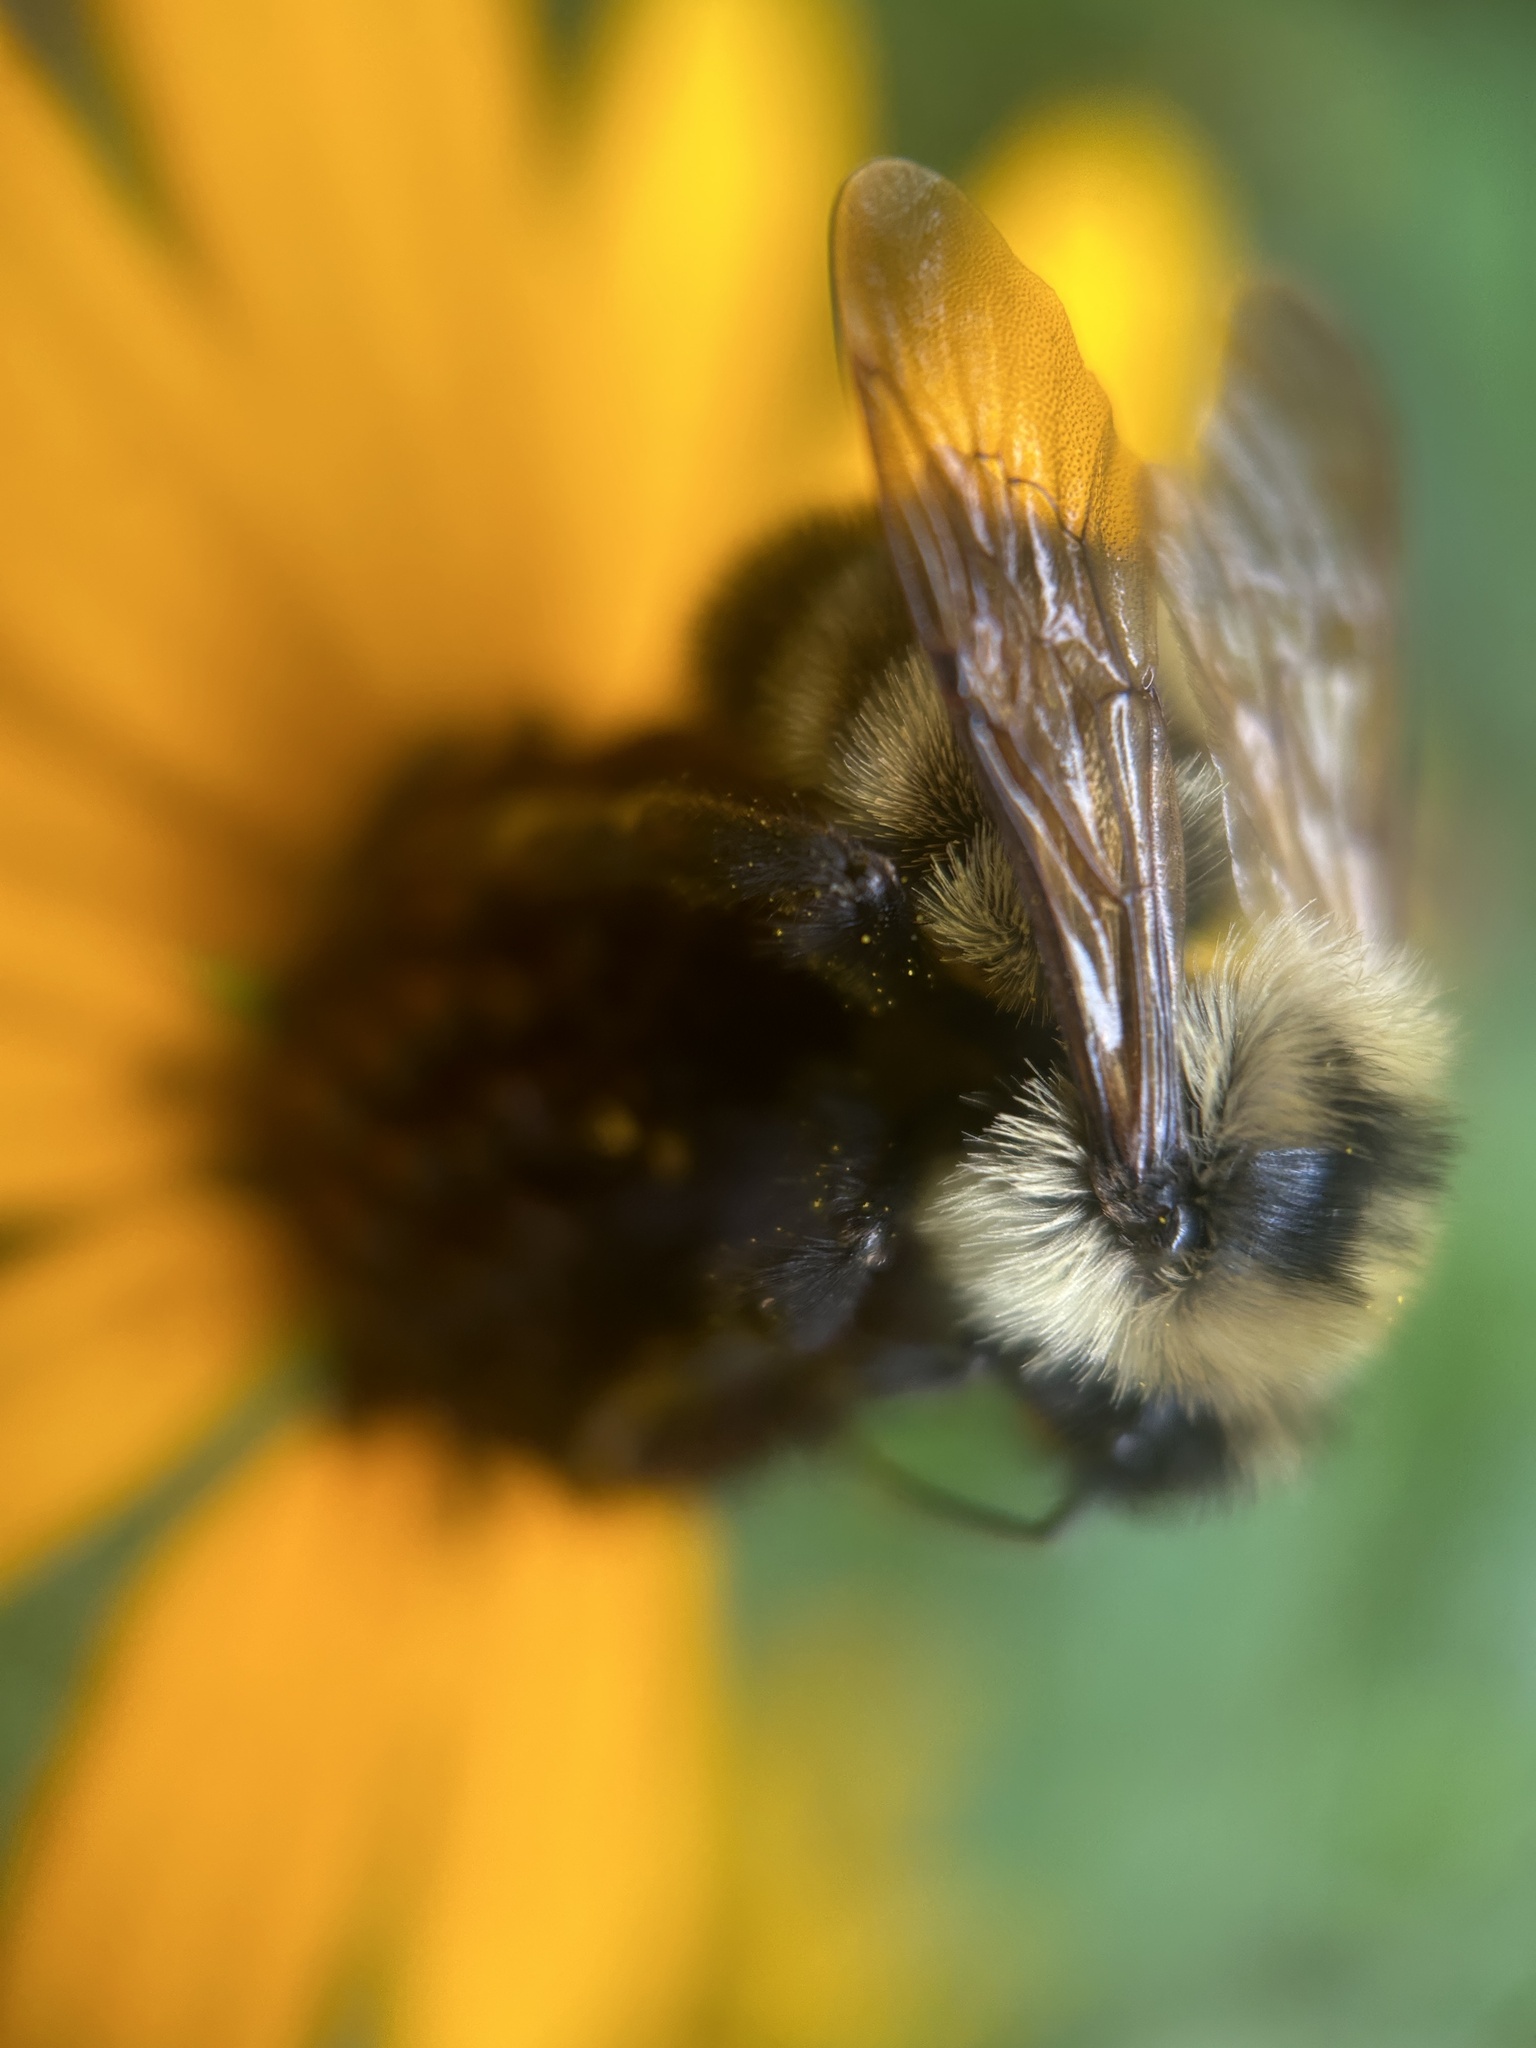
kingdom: Animalia
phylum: Arthropoda
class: Insecta
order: Hymenoptera
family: Apidae
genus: Bombus
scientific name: Bombus citrinus
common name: Lemon cuckoo bumble bee
